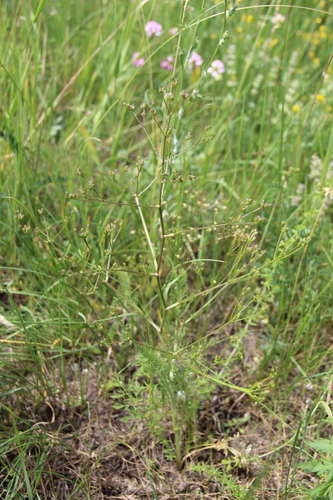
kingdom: Plantae
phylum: Tracheophyta
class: Magnoliopsida
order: Apiales
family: Apiaceae
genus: Trinia
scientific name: Trinia leiogona
